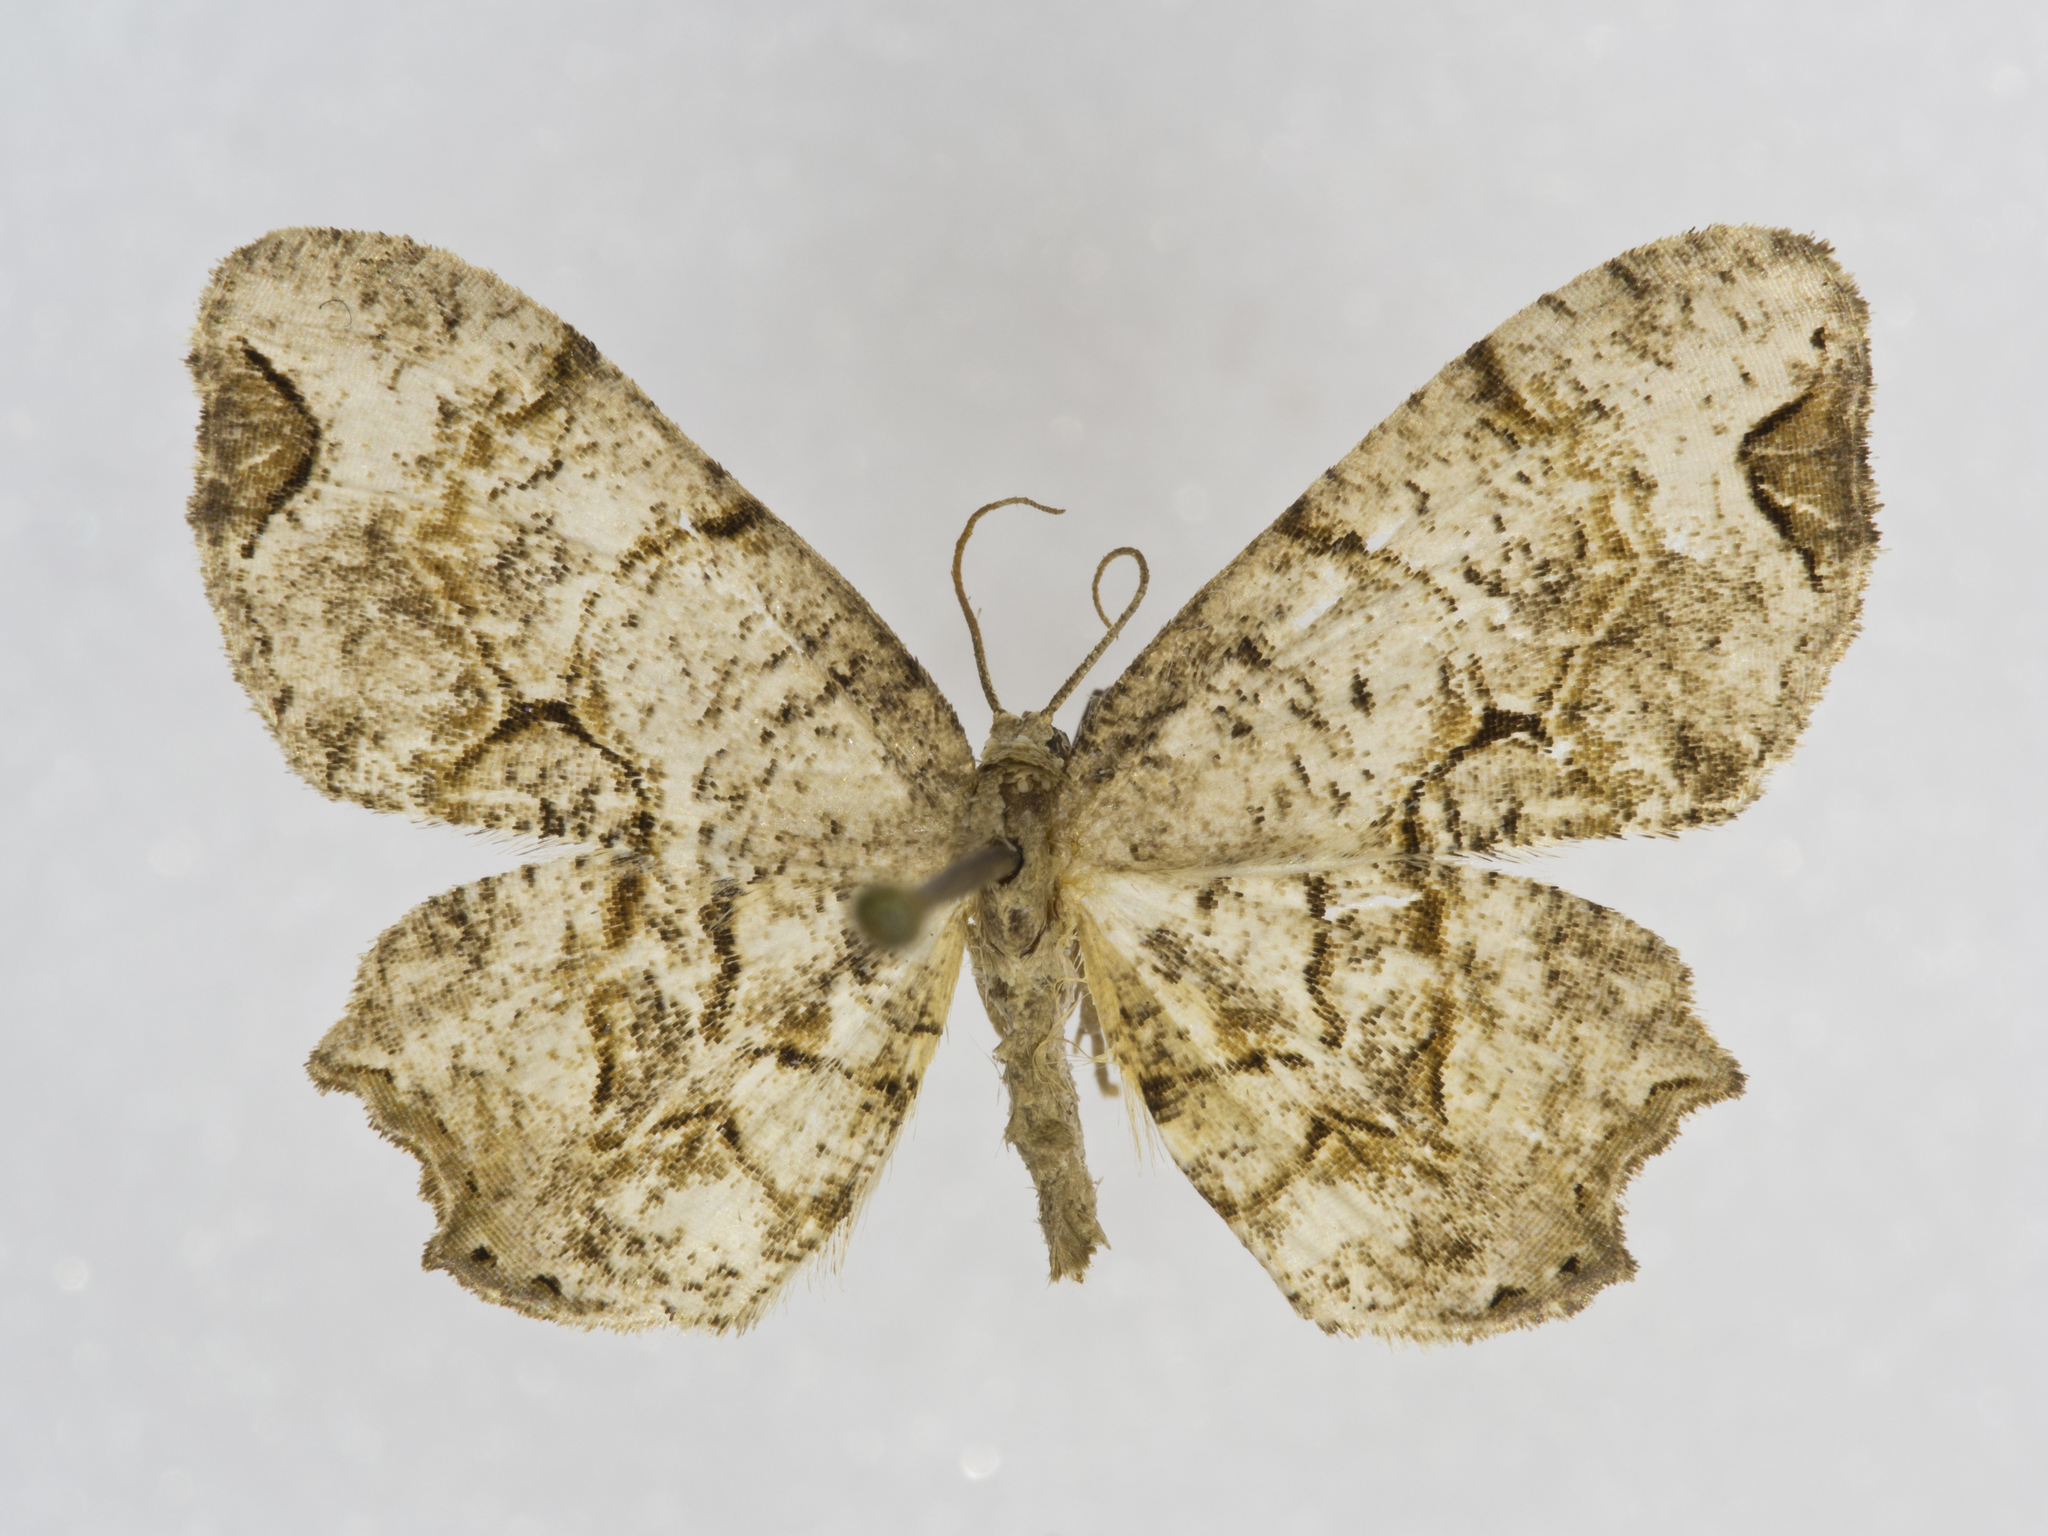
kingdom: Animalia
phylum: Arthropoda
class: Insecta
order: Lepidoptera
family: Uraniidae
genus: Epiplema
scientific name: Epiplema Callizzia amorata
